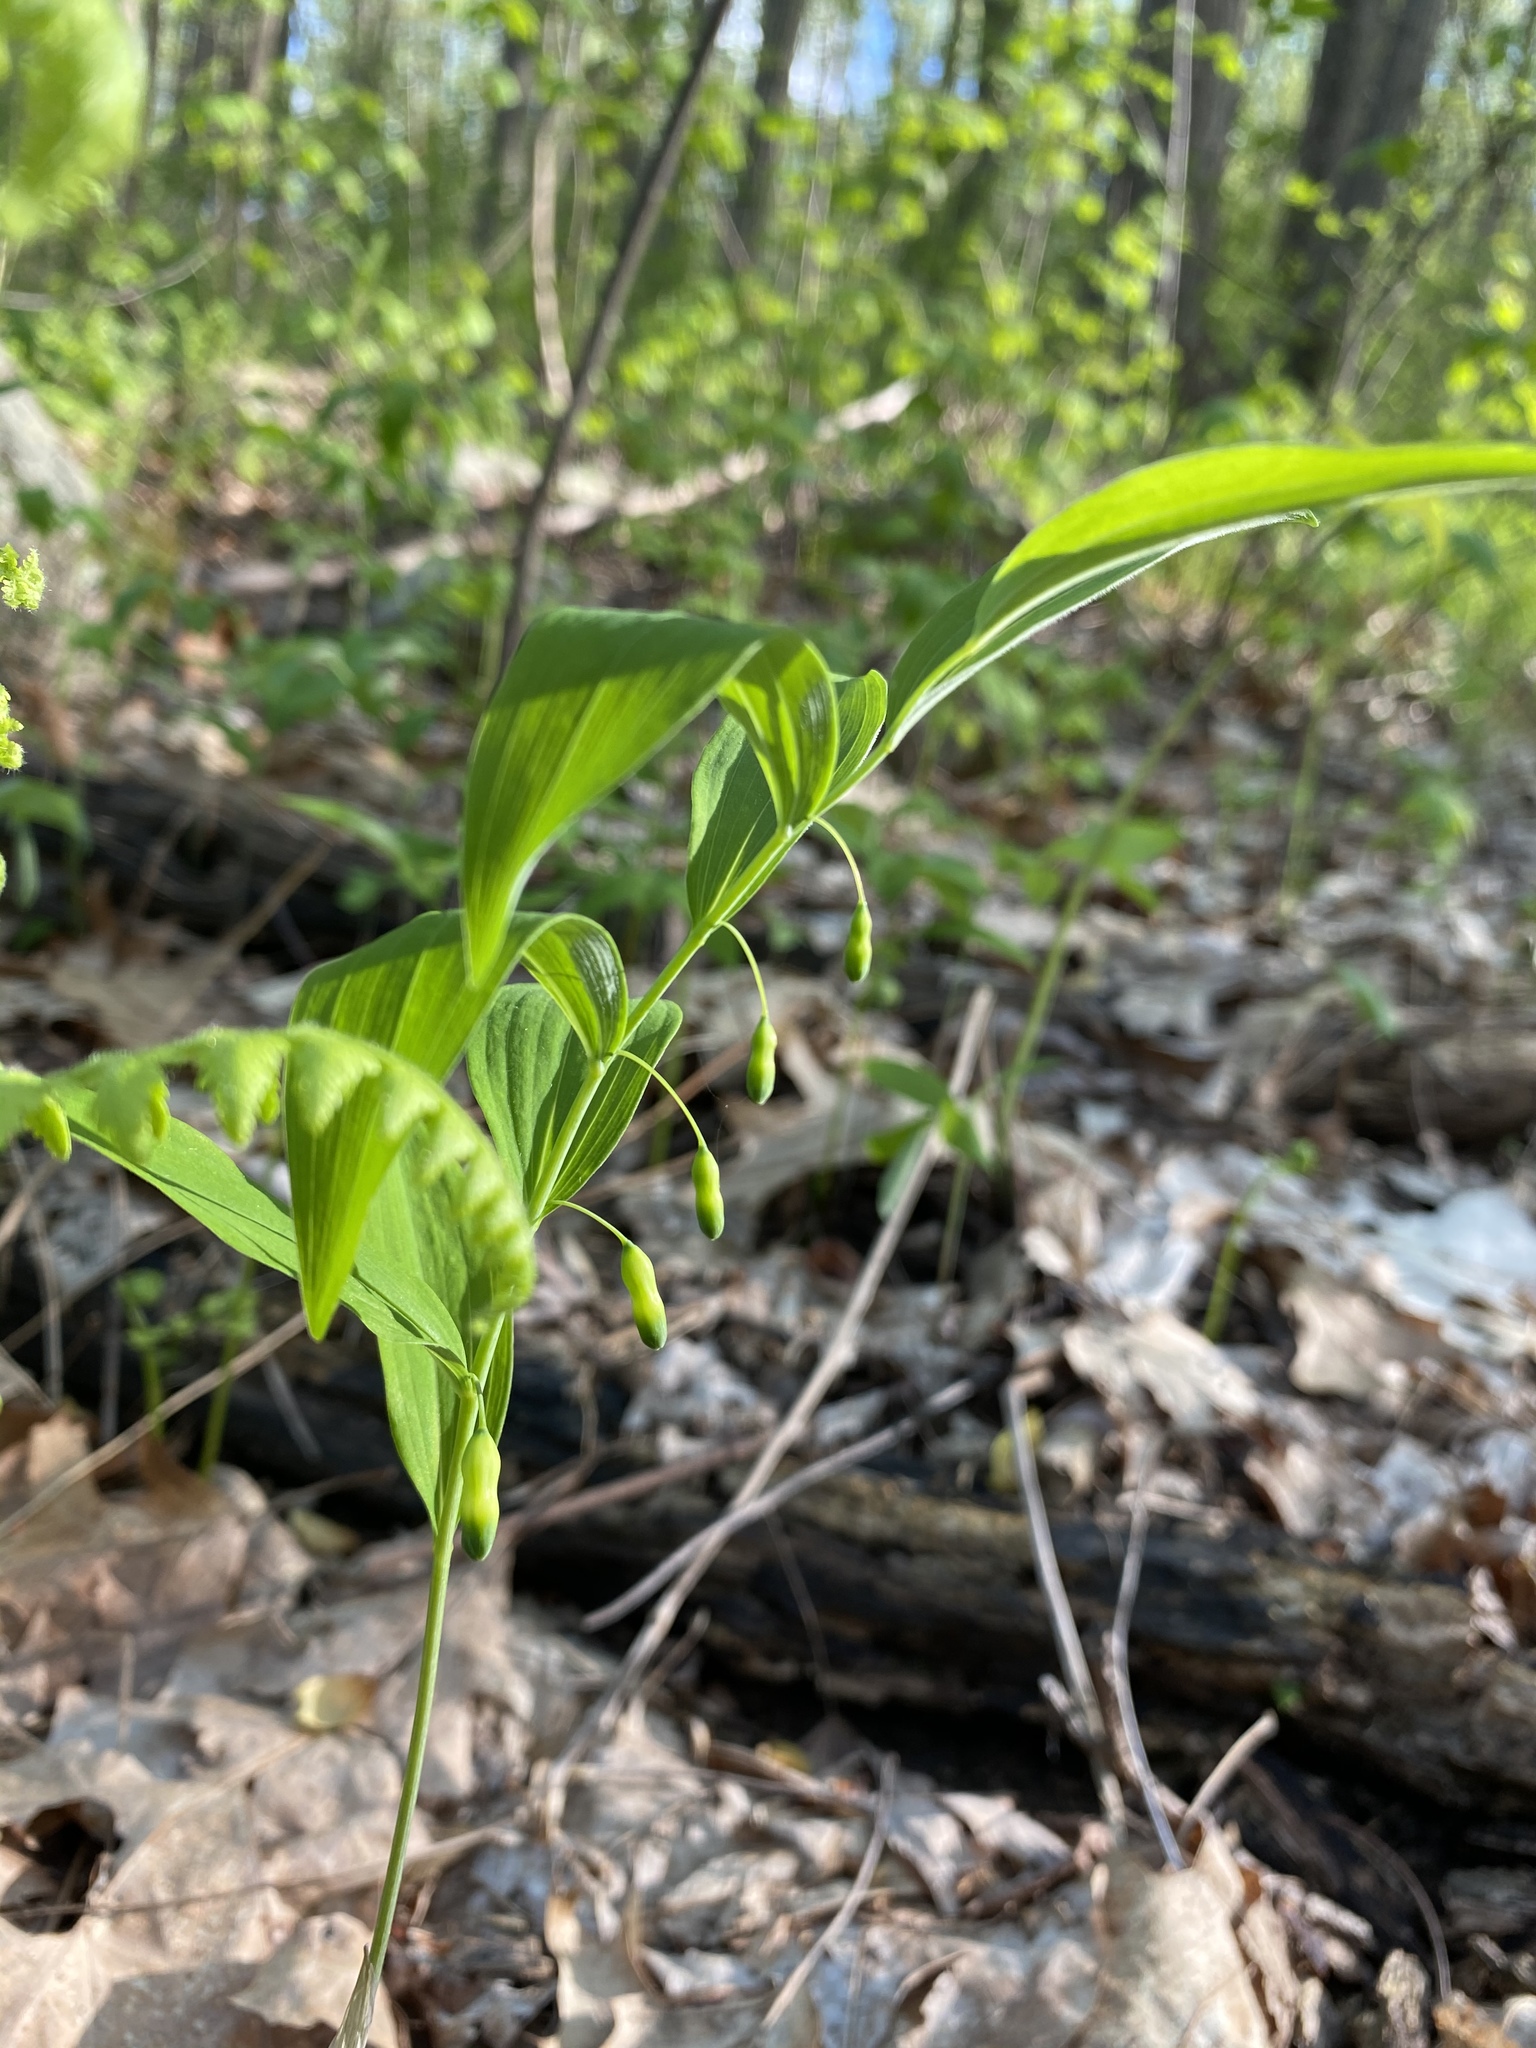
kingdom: Plantae
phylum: Tracheophyta
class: Liliopsida
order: Asparagales
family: Asparagaceae
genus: Polygonatum
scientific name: Polygonatum pubescens
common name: Downy solomon's seal
